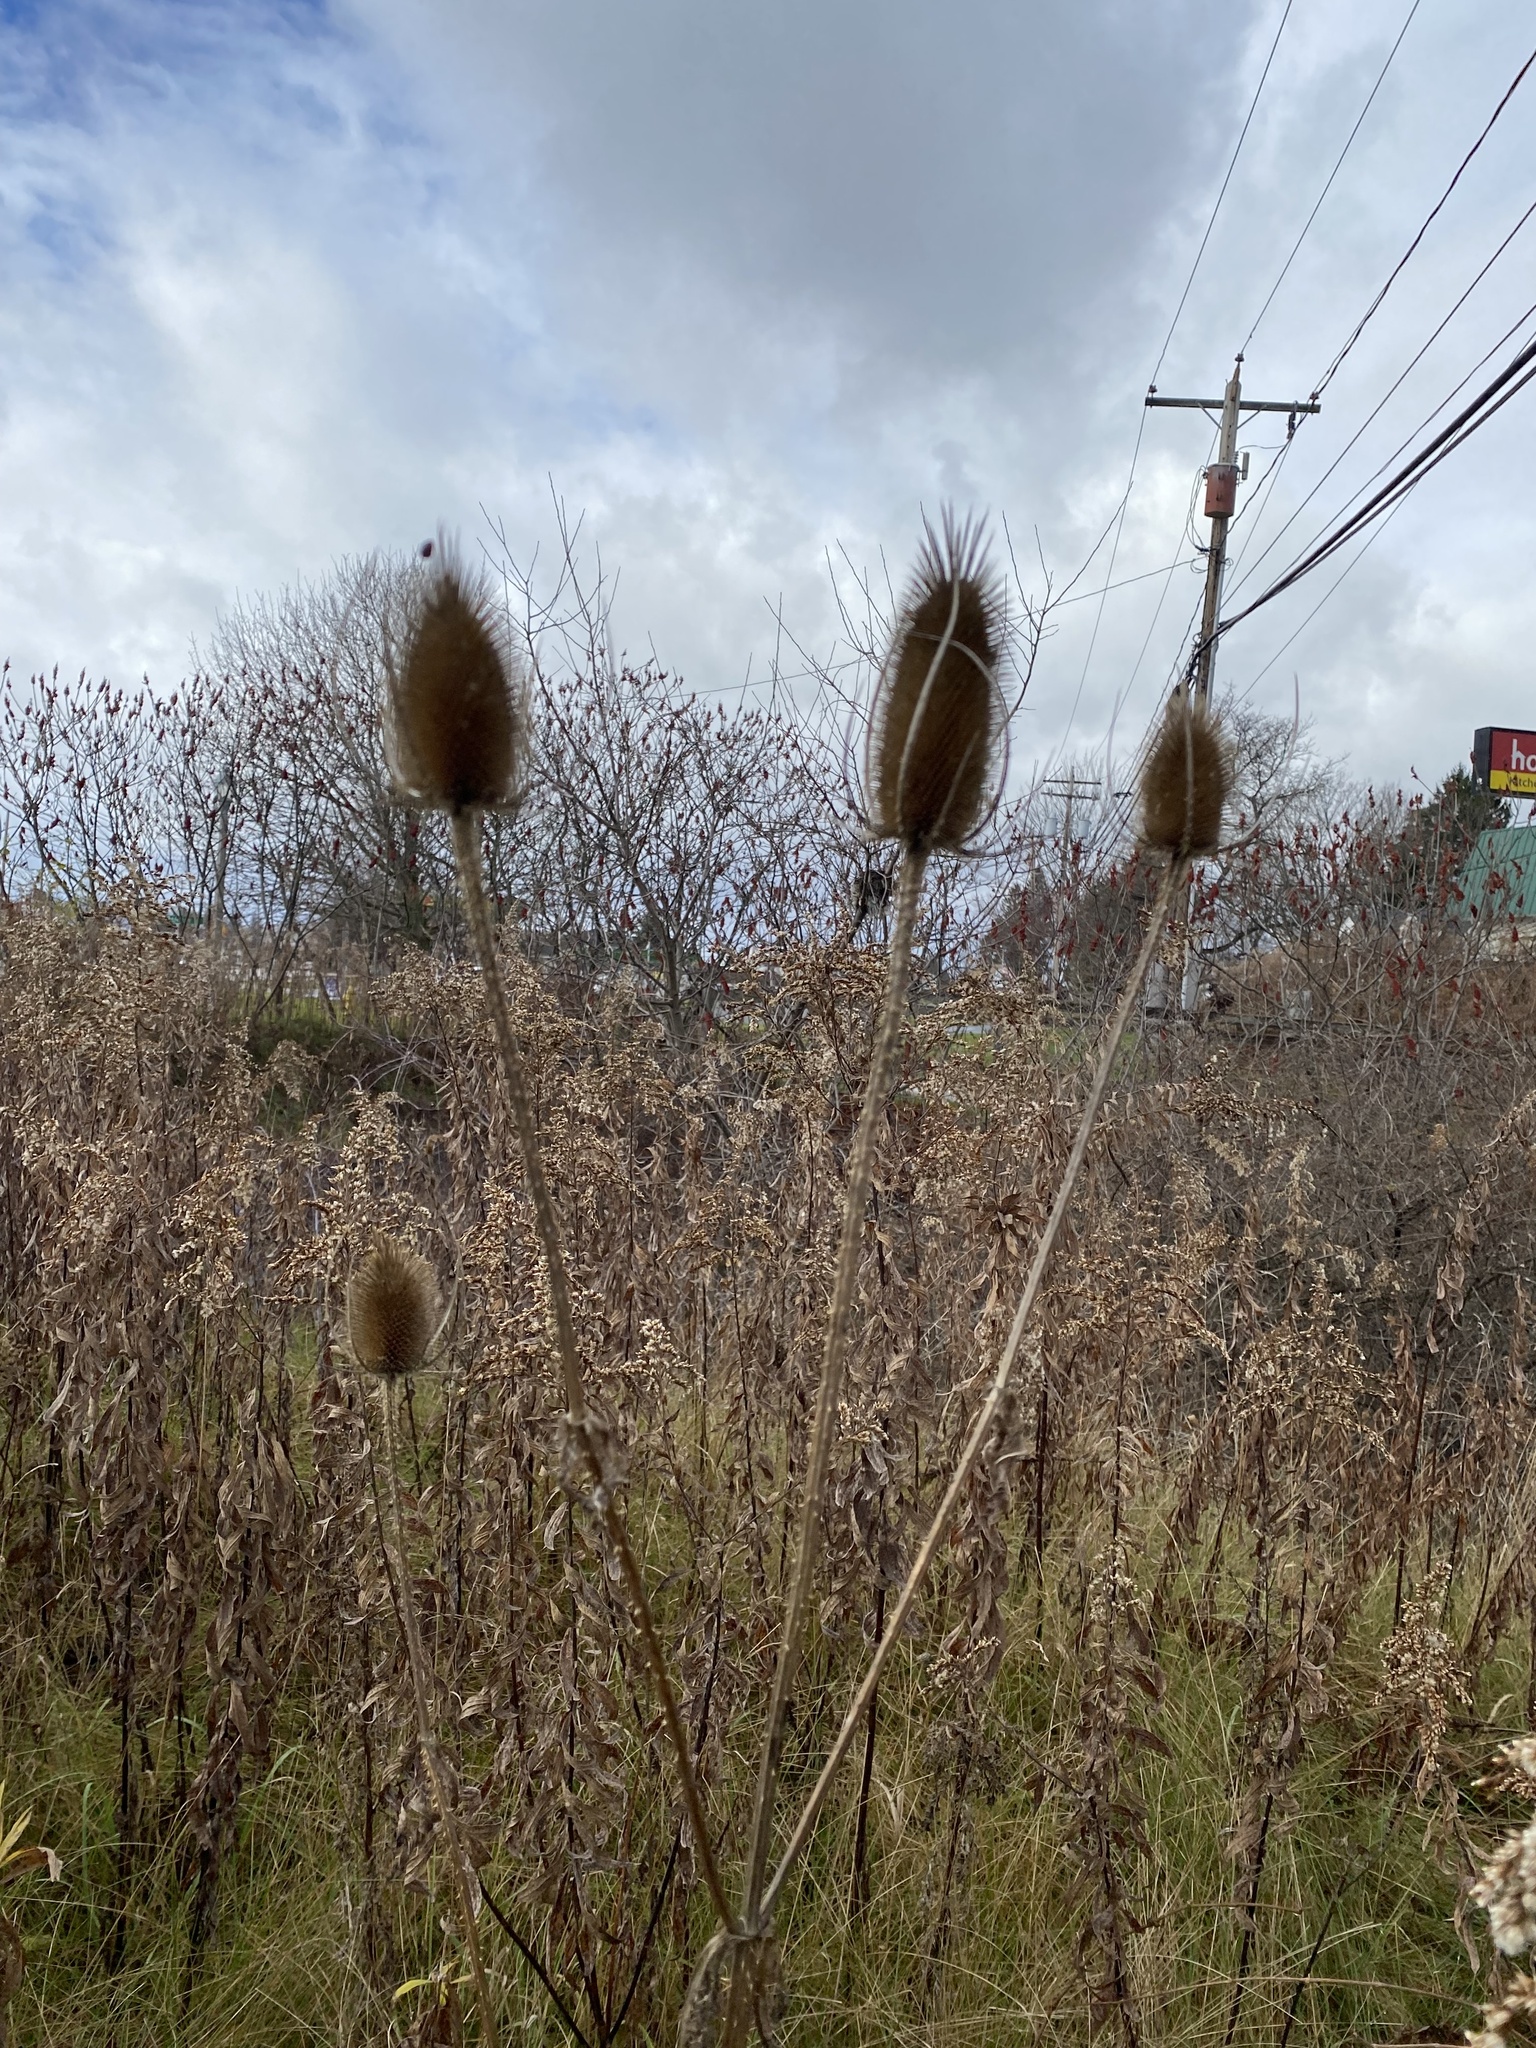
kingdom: Plantae
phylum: Tracheophyta
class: Magnoliopsida
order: Dipsacales
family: Caprifoliaceae
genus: Dipsacus
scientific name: Dipsacus fullonum
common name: Teasel
